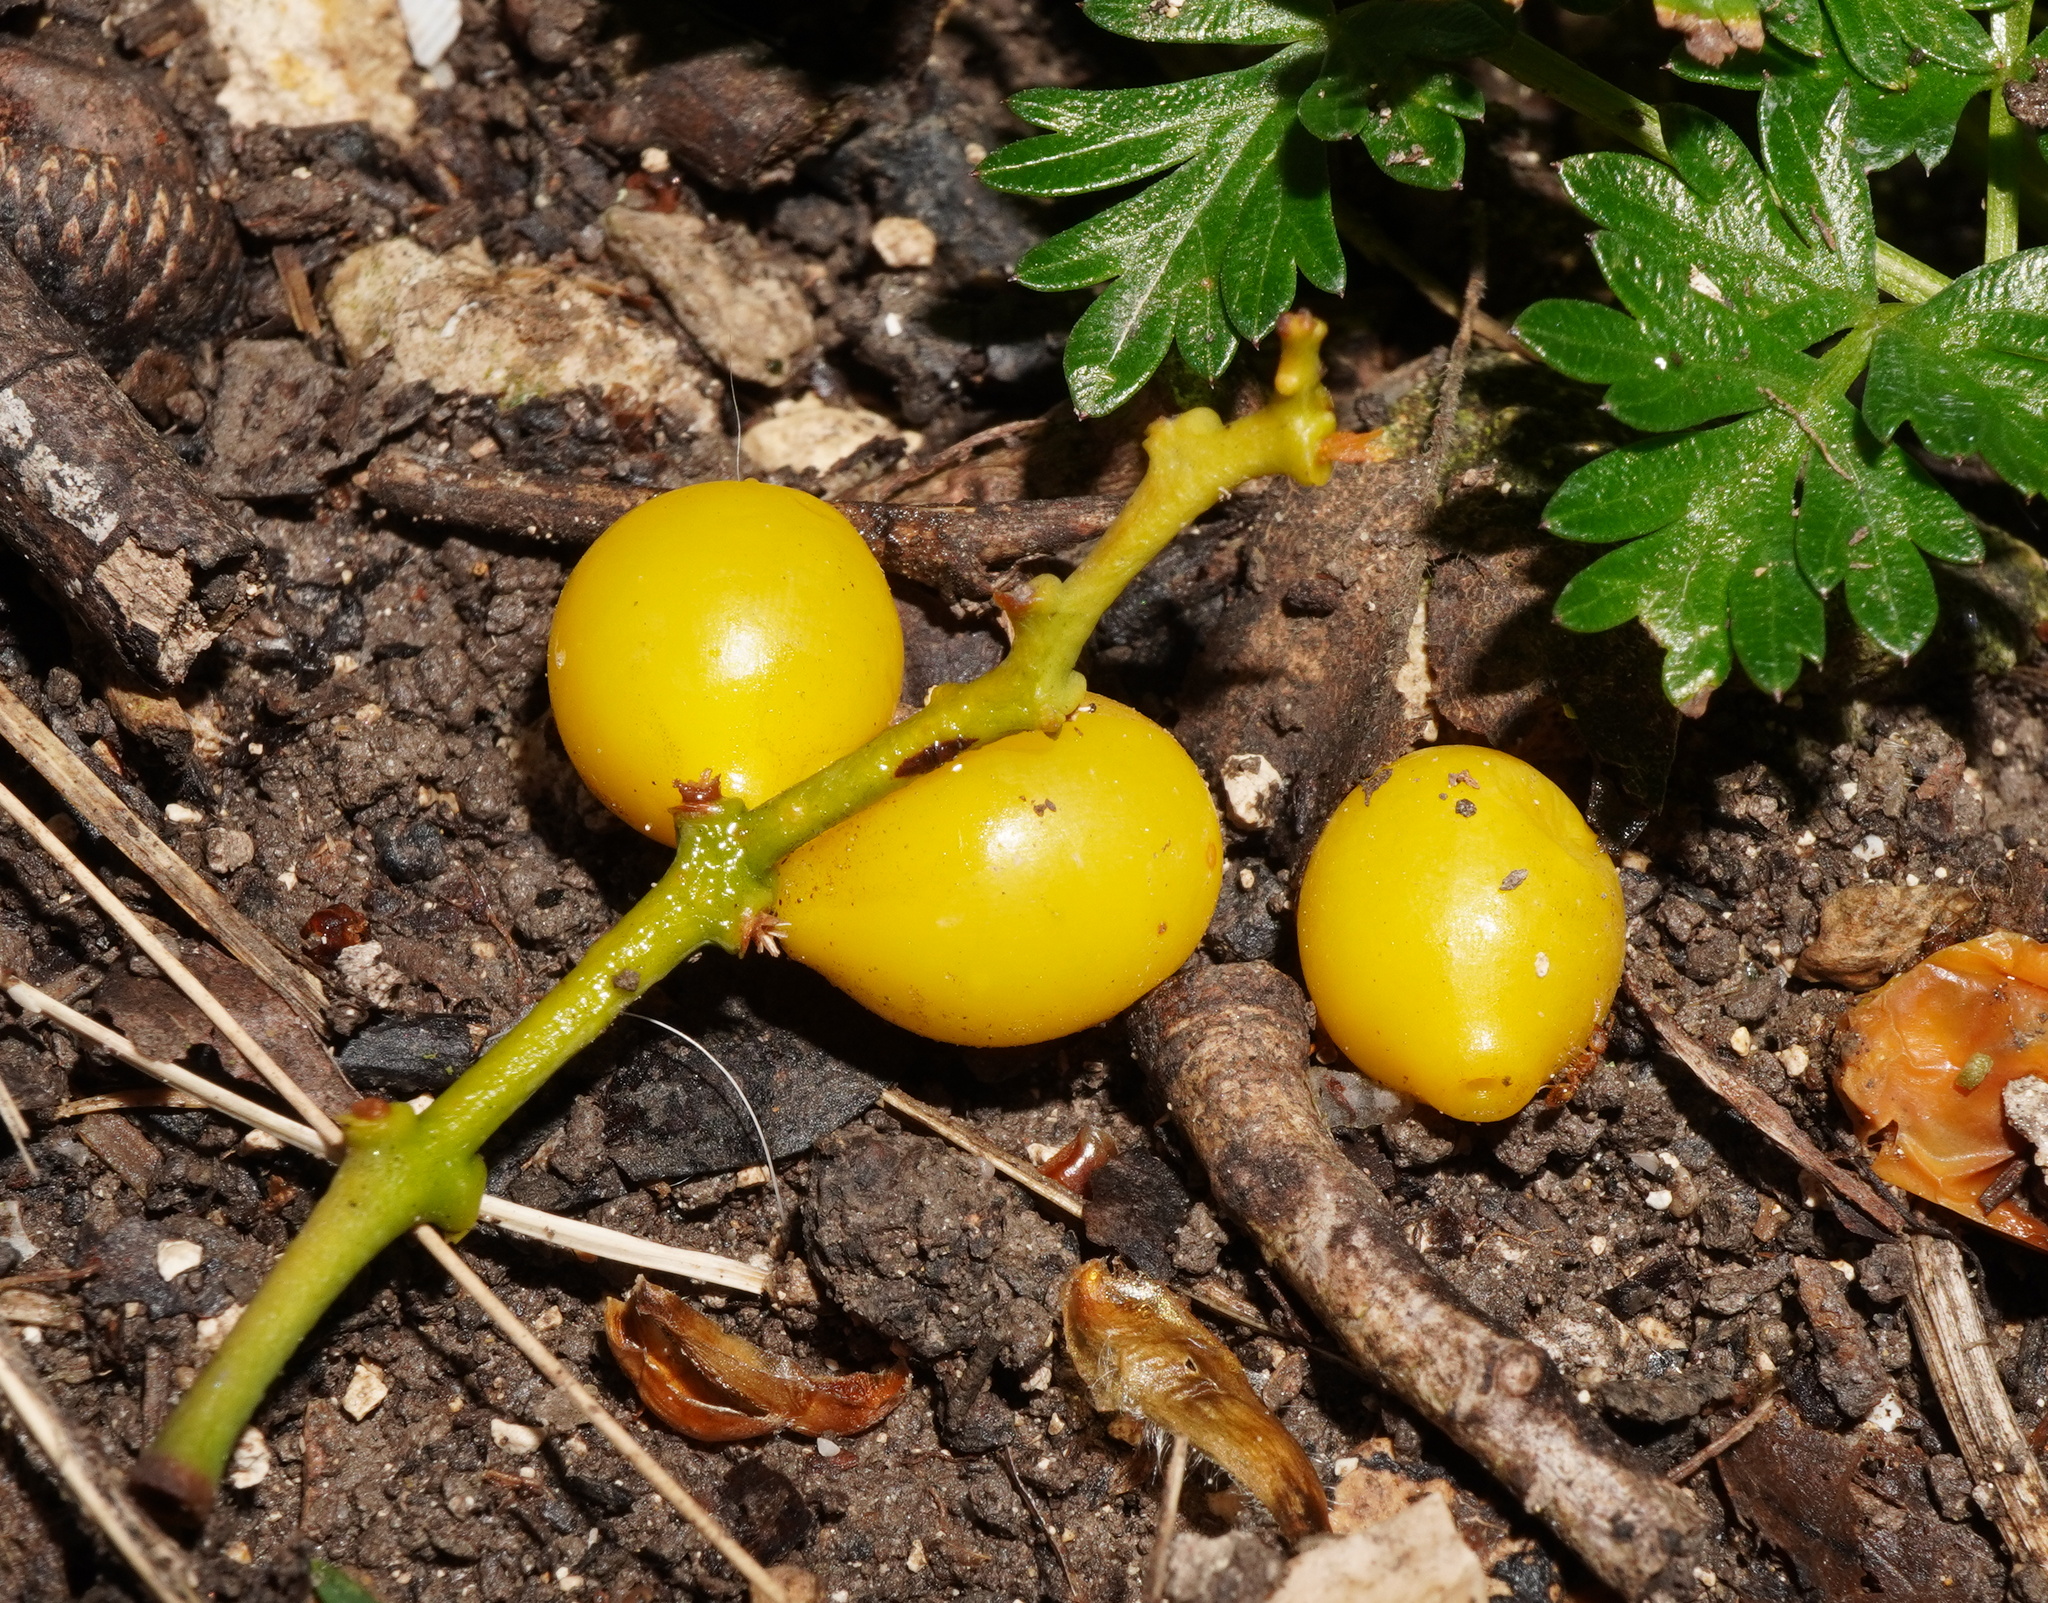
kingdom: Plantae
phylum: Tracheophyta
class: Magnoliopsida
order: Santalales
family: Loranthaceae
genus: Loranthus
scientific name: Loranthus europaeus
